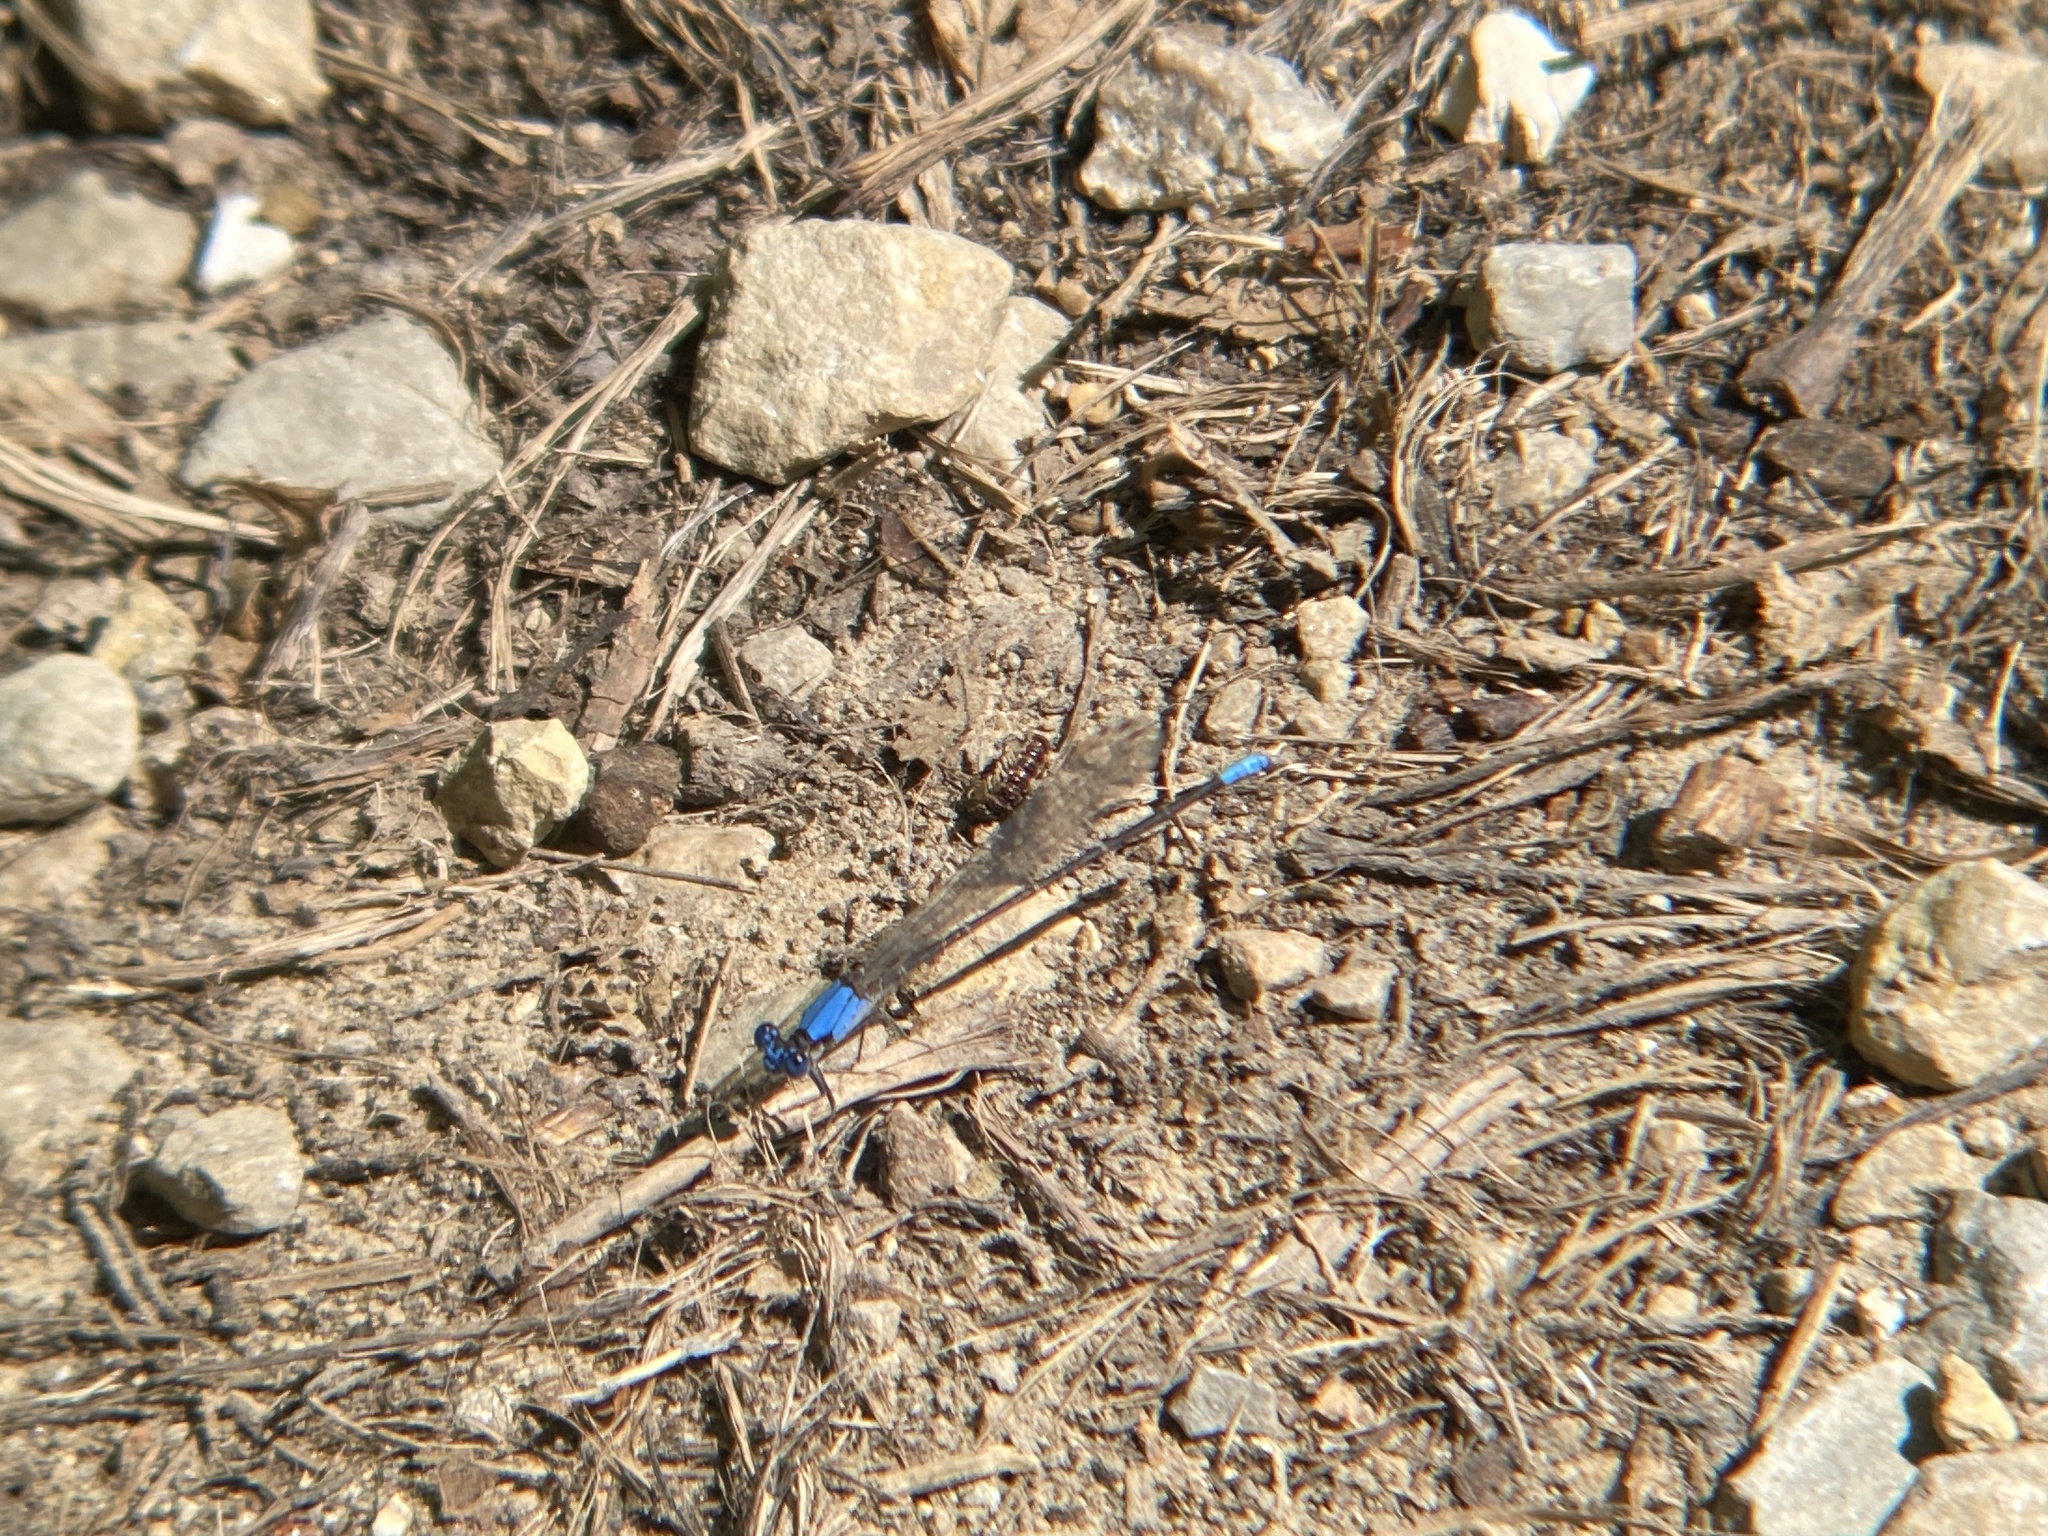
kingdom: Animalia
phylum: Arthropoda
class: Insecta
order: Odonata
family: Coenagrionidae
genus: Argia
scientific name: Argia apicalis
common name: Blue-fronted dancer
